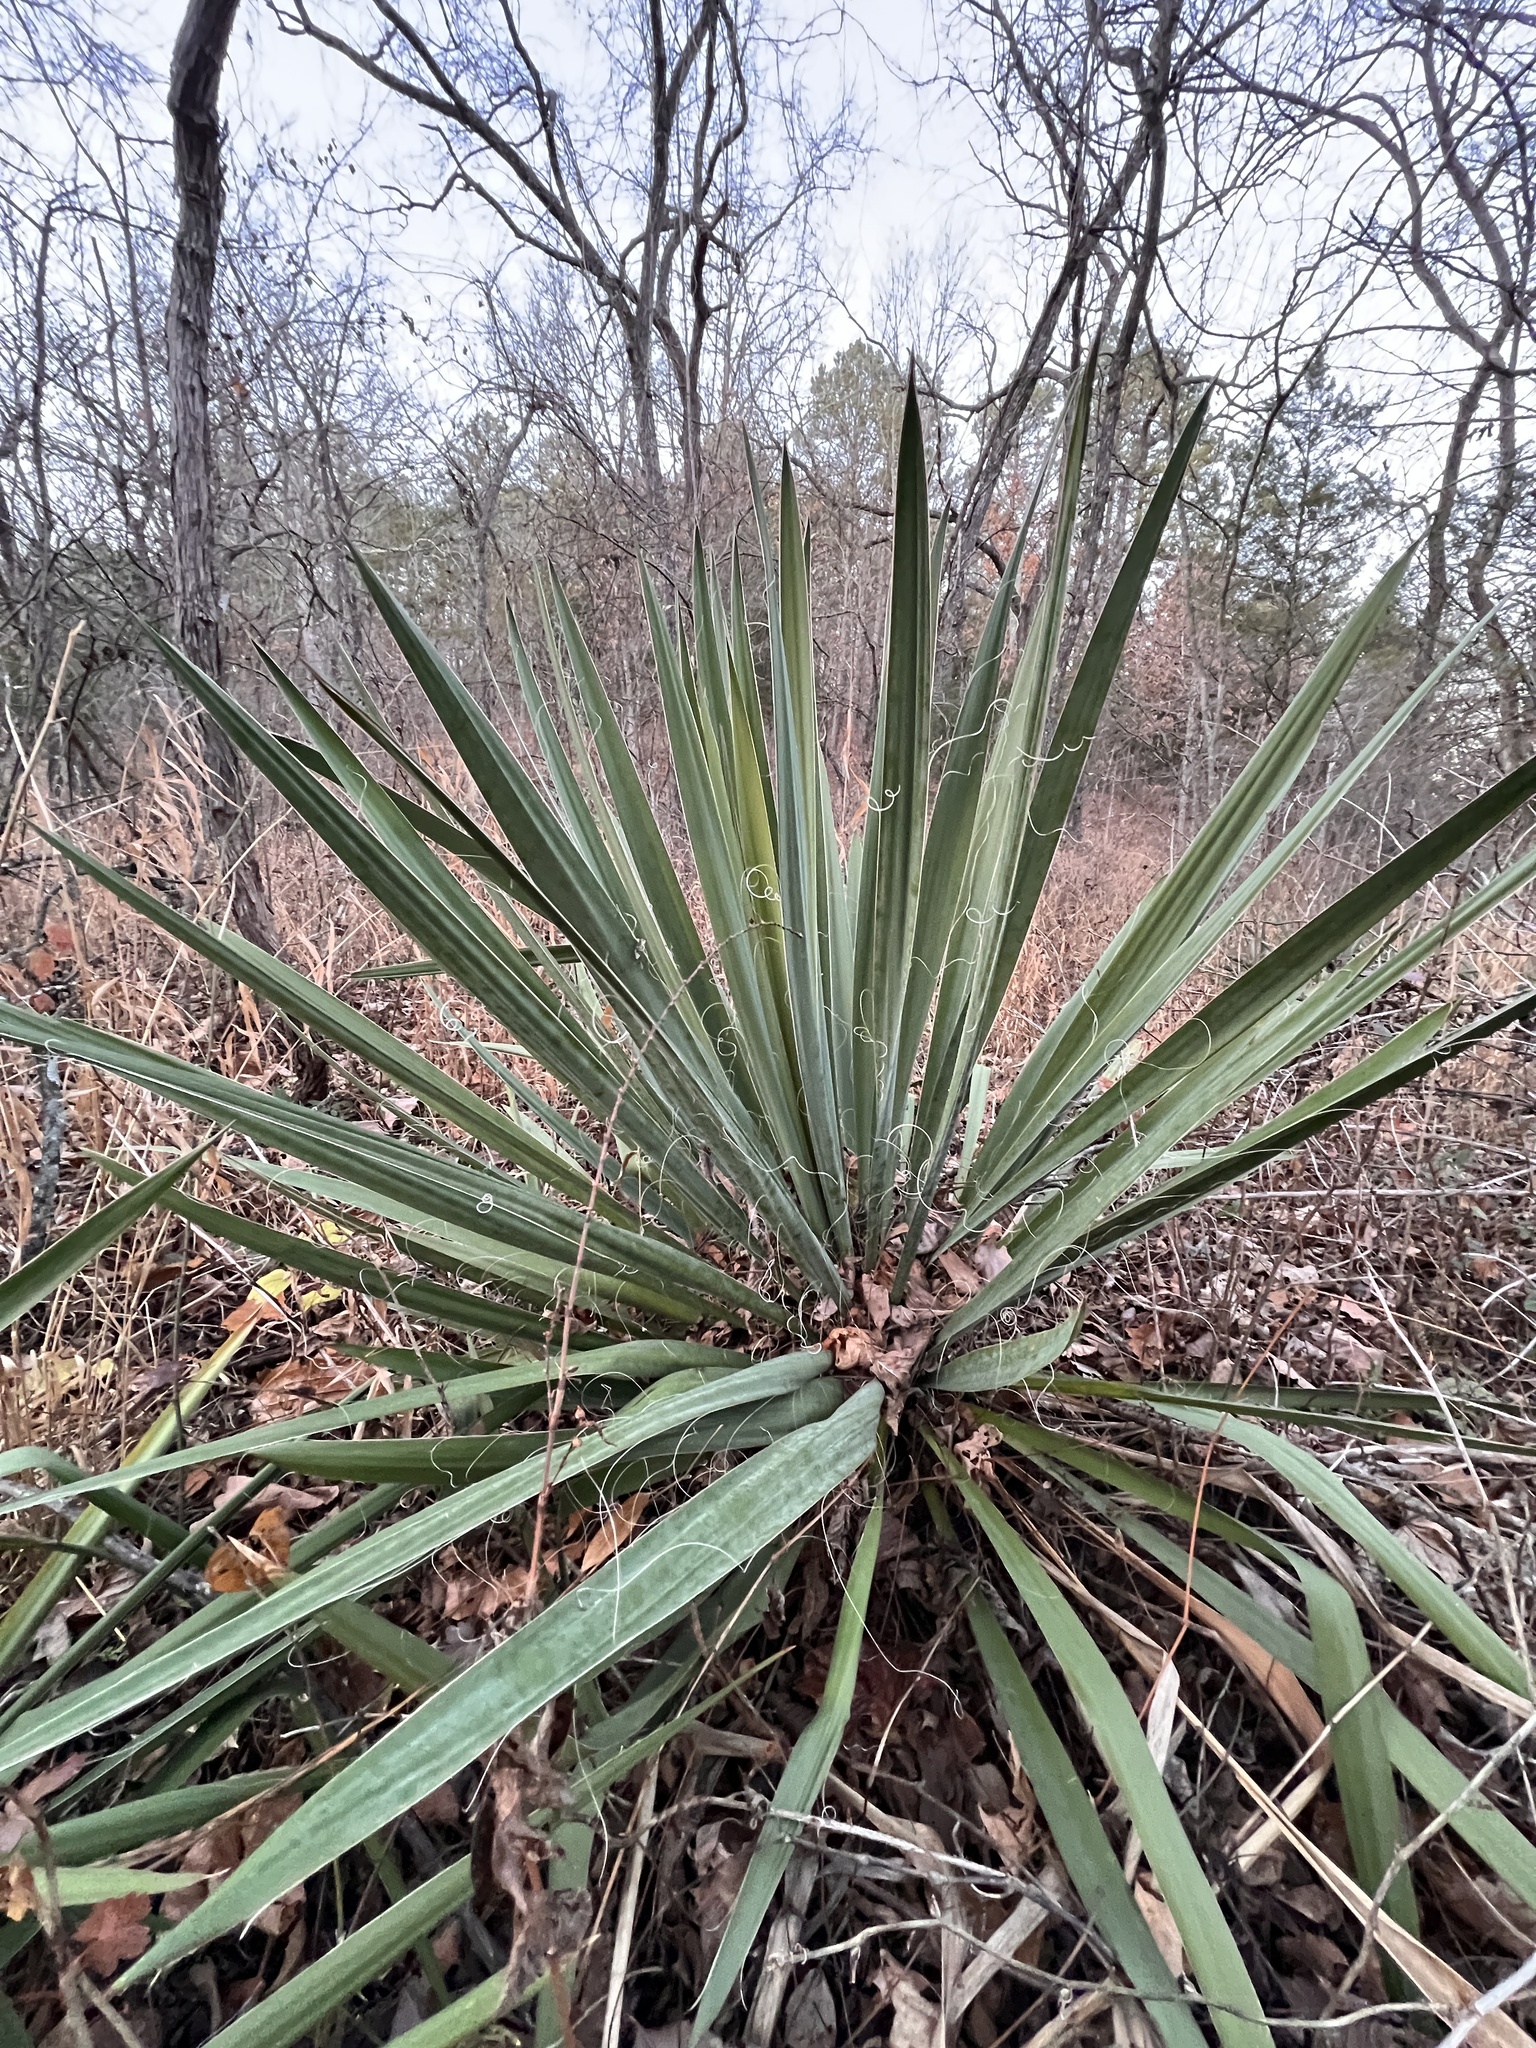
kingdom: Plantae
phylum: Tracheophyta
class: Liliopsida
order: Asparagales
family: Asparagaceae
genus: Yucca
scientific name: Yucca filamentosa
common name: Adam's-needle
